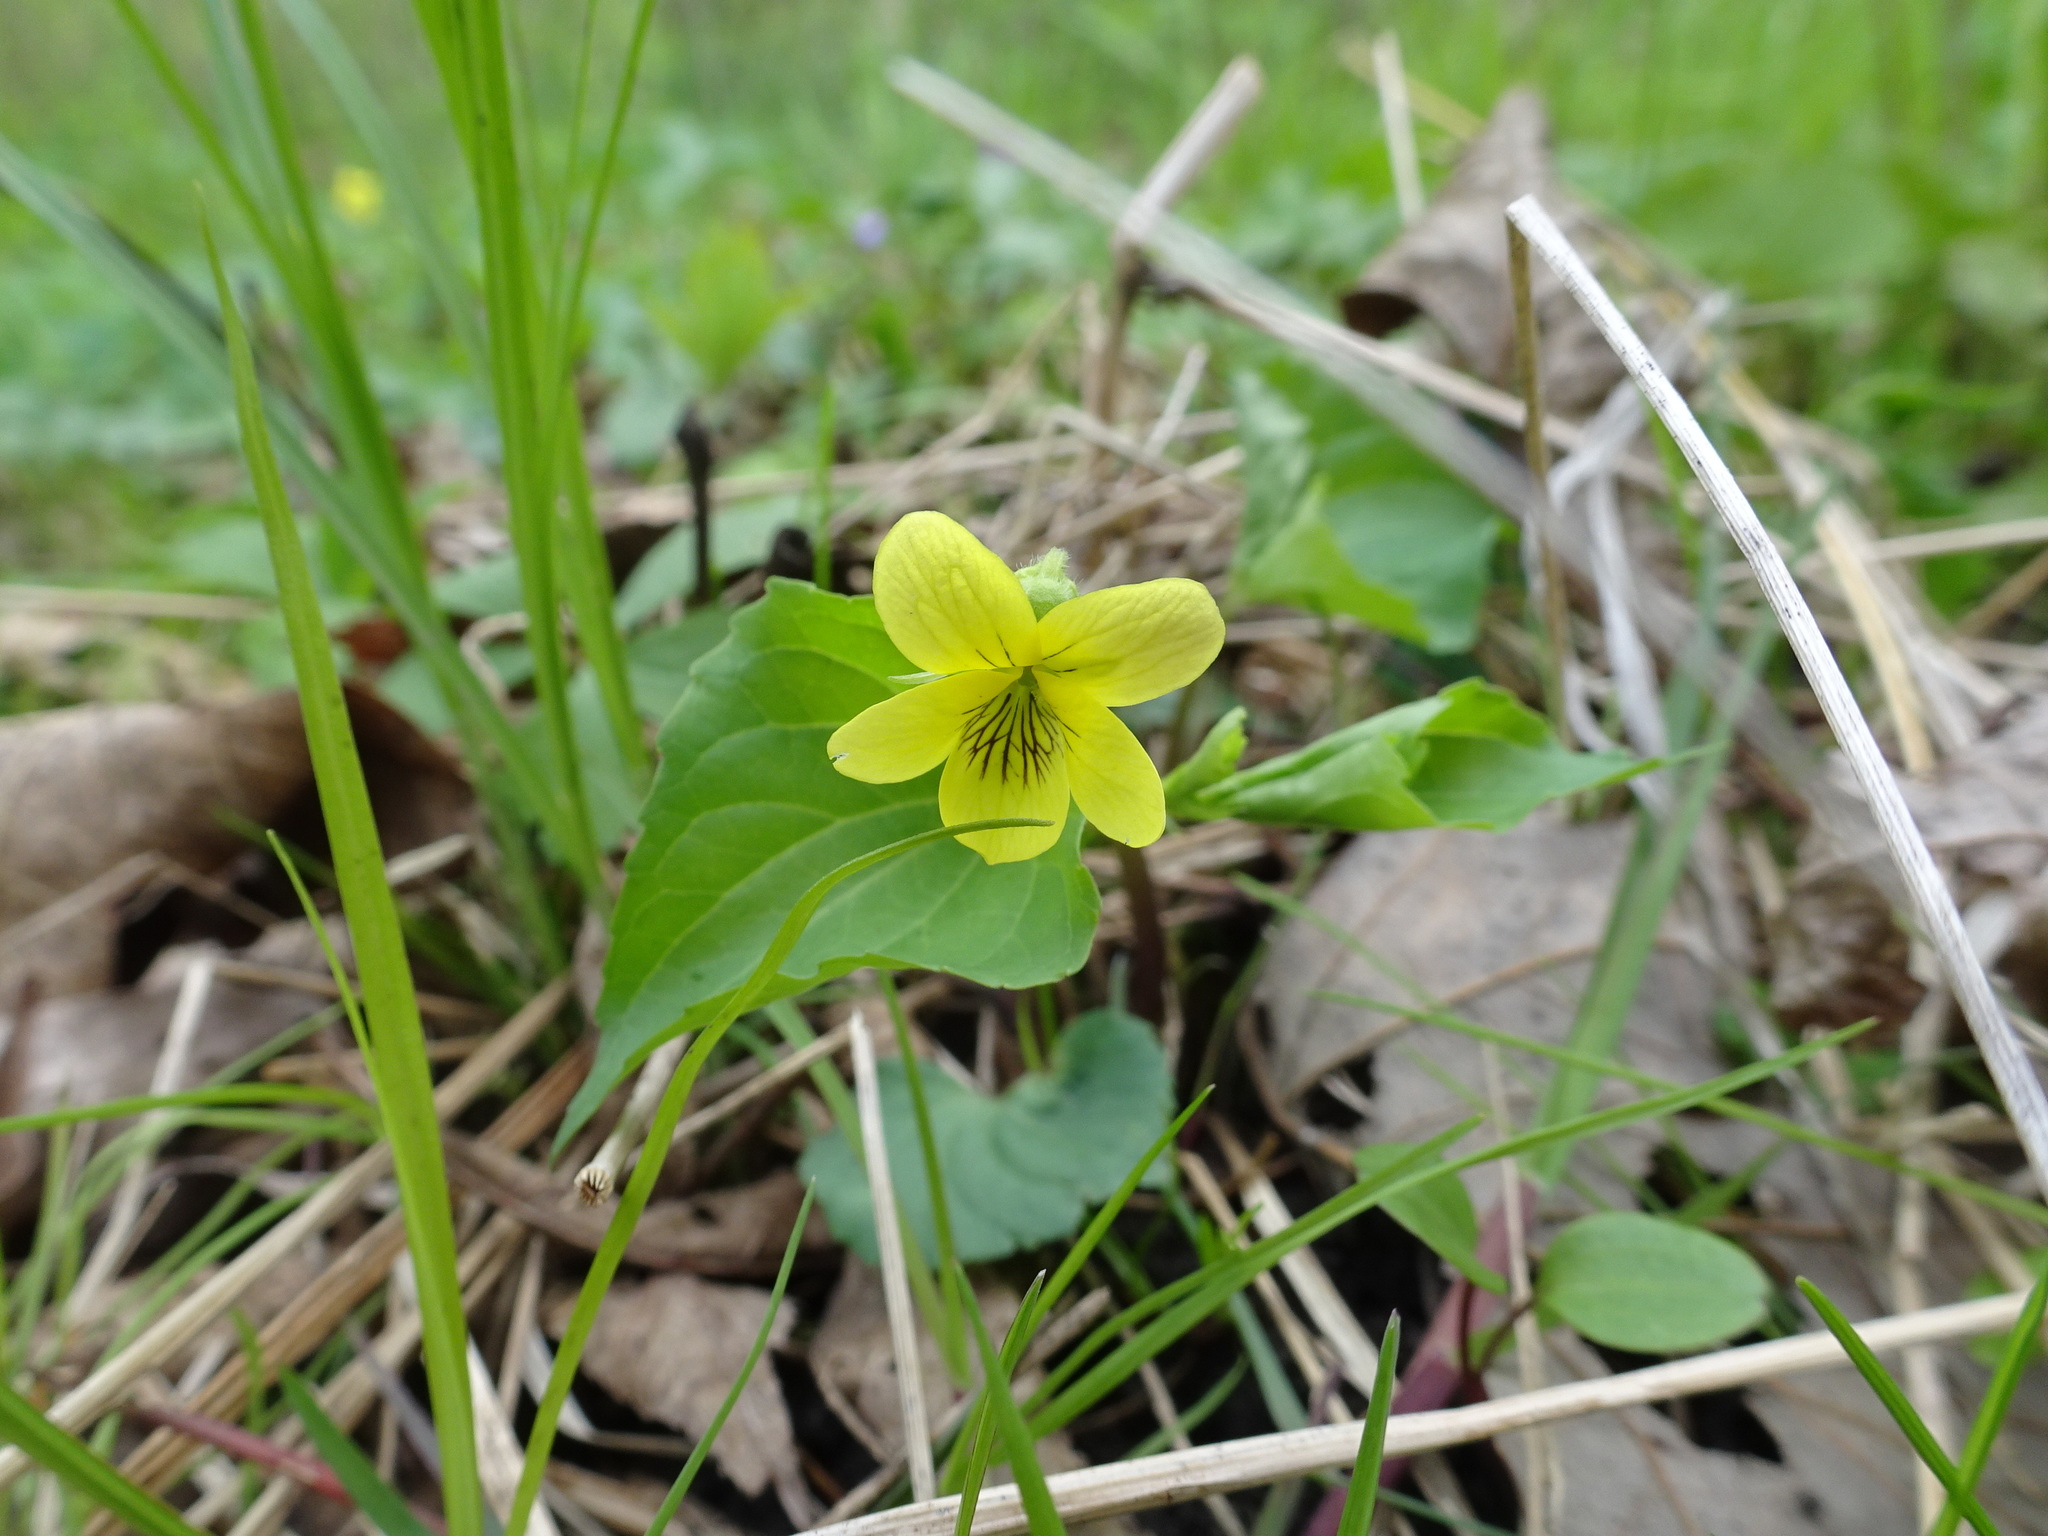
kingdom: Plantae
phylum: Tracheophyta
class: Magnoliopsida
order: Malpighiales
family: Violaceae
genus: Viola
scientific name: Viola eriocarpa
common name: Smooth yellow violet
